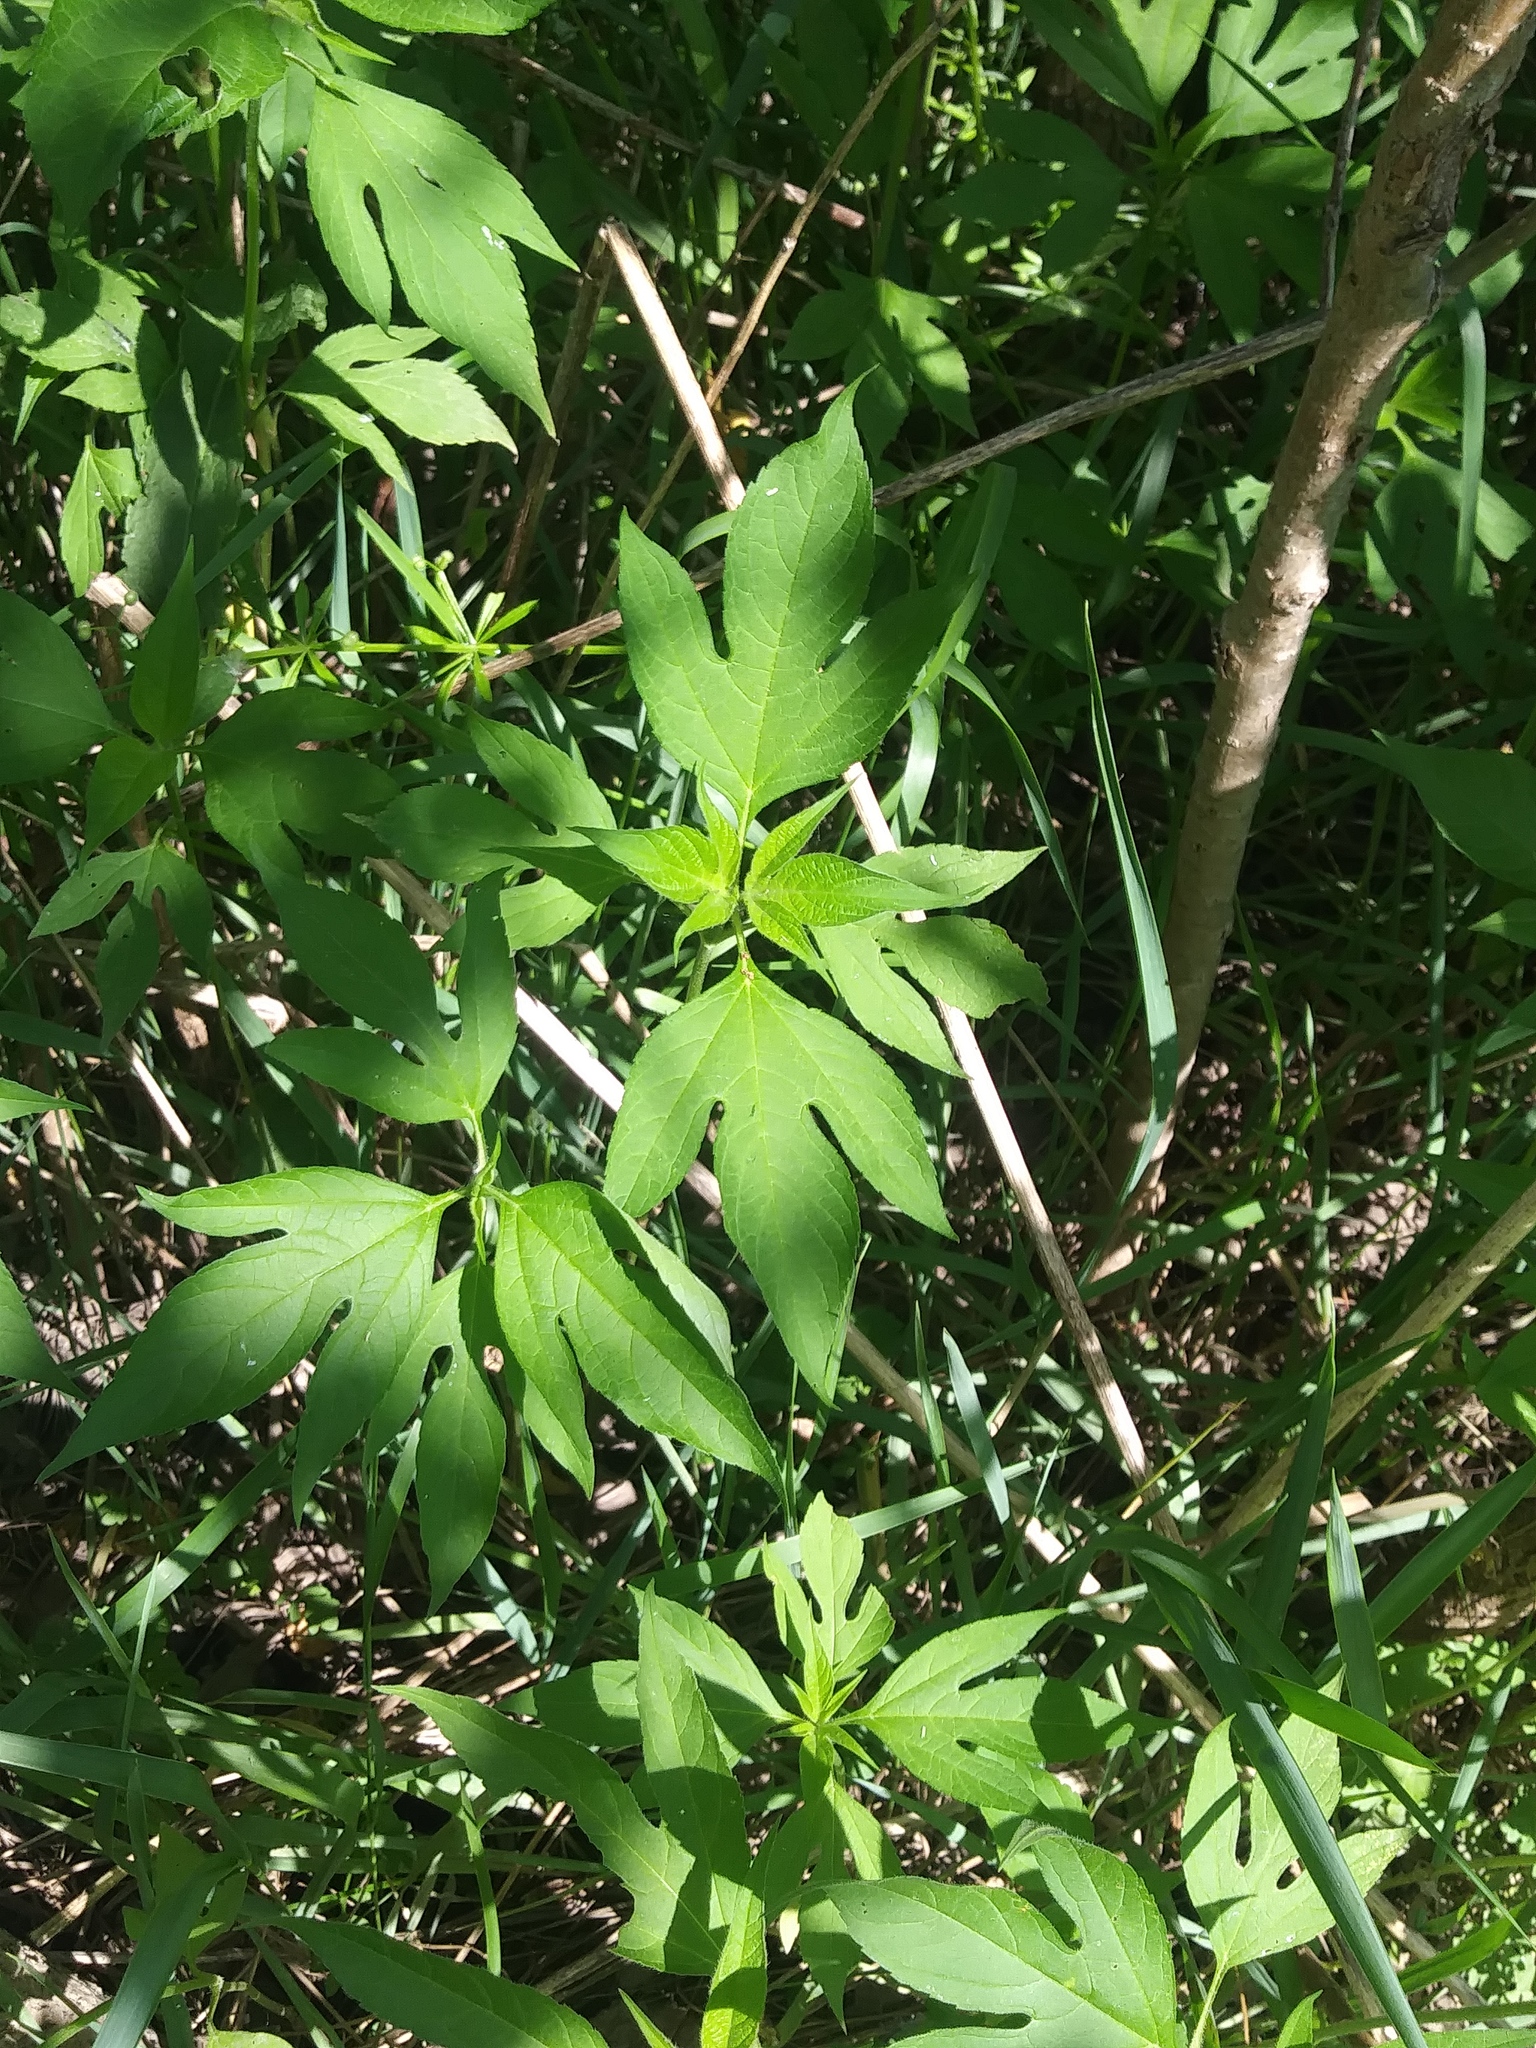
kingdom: Plantae
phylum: Tracheophyta
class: Magnoliopsida
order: Asterales
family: Asteraceae
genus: Ambrosia
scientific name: Ambrosia trifida
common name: Giant ragweed
